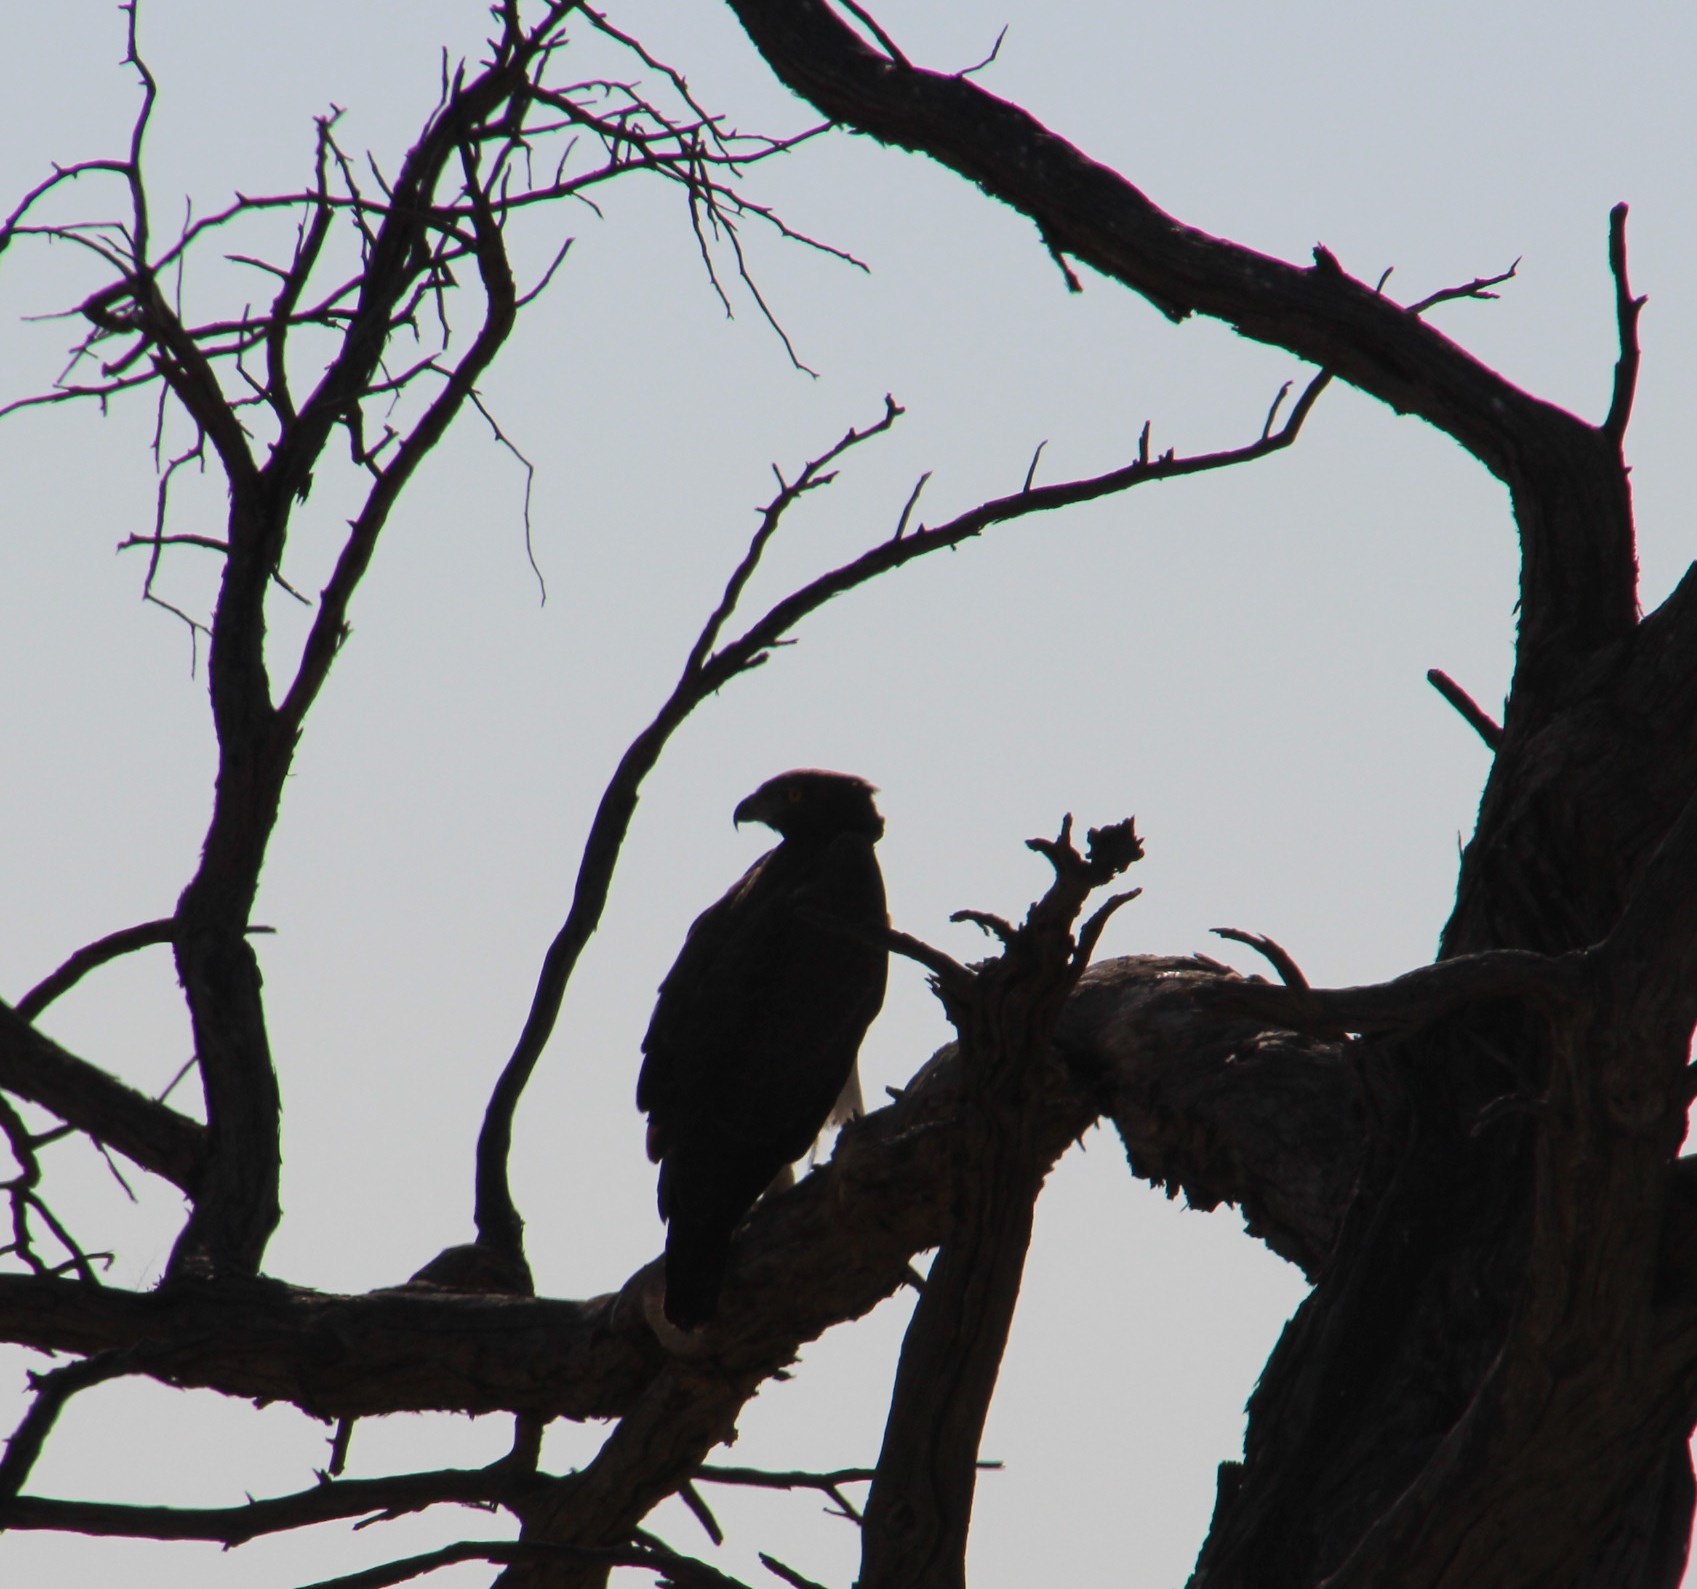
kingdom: Animalia
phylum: Chordata
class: Aves
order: Accipitriformes
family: Accipitridae
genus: Aquila
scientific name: Aquila rapax
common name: Tawny eagle
